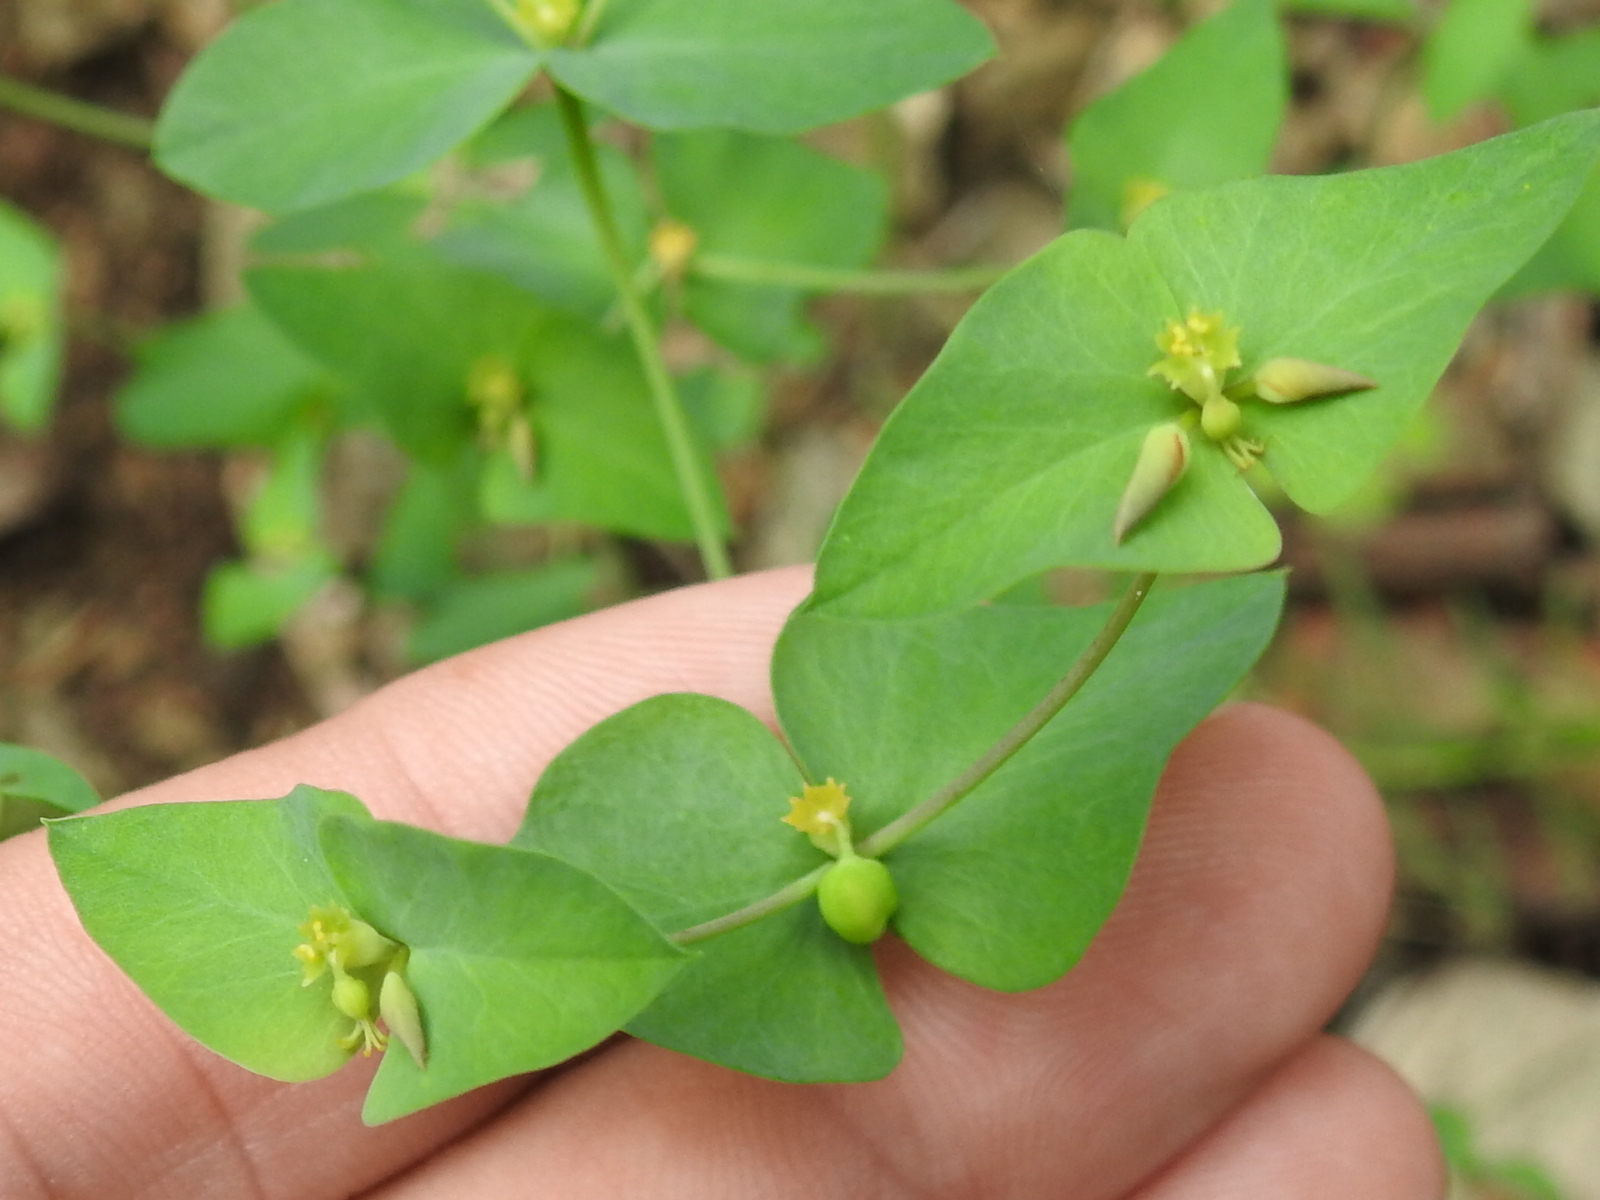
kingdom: Plantae
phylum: Tracheophyta
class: Magnoliopsida
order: Malpighiales
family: Euphorbiaceae
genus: Euphorbia
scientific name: Euphorbia brachycera
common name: Shorthorn spurge
